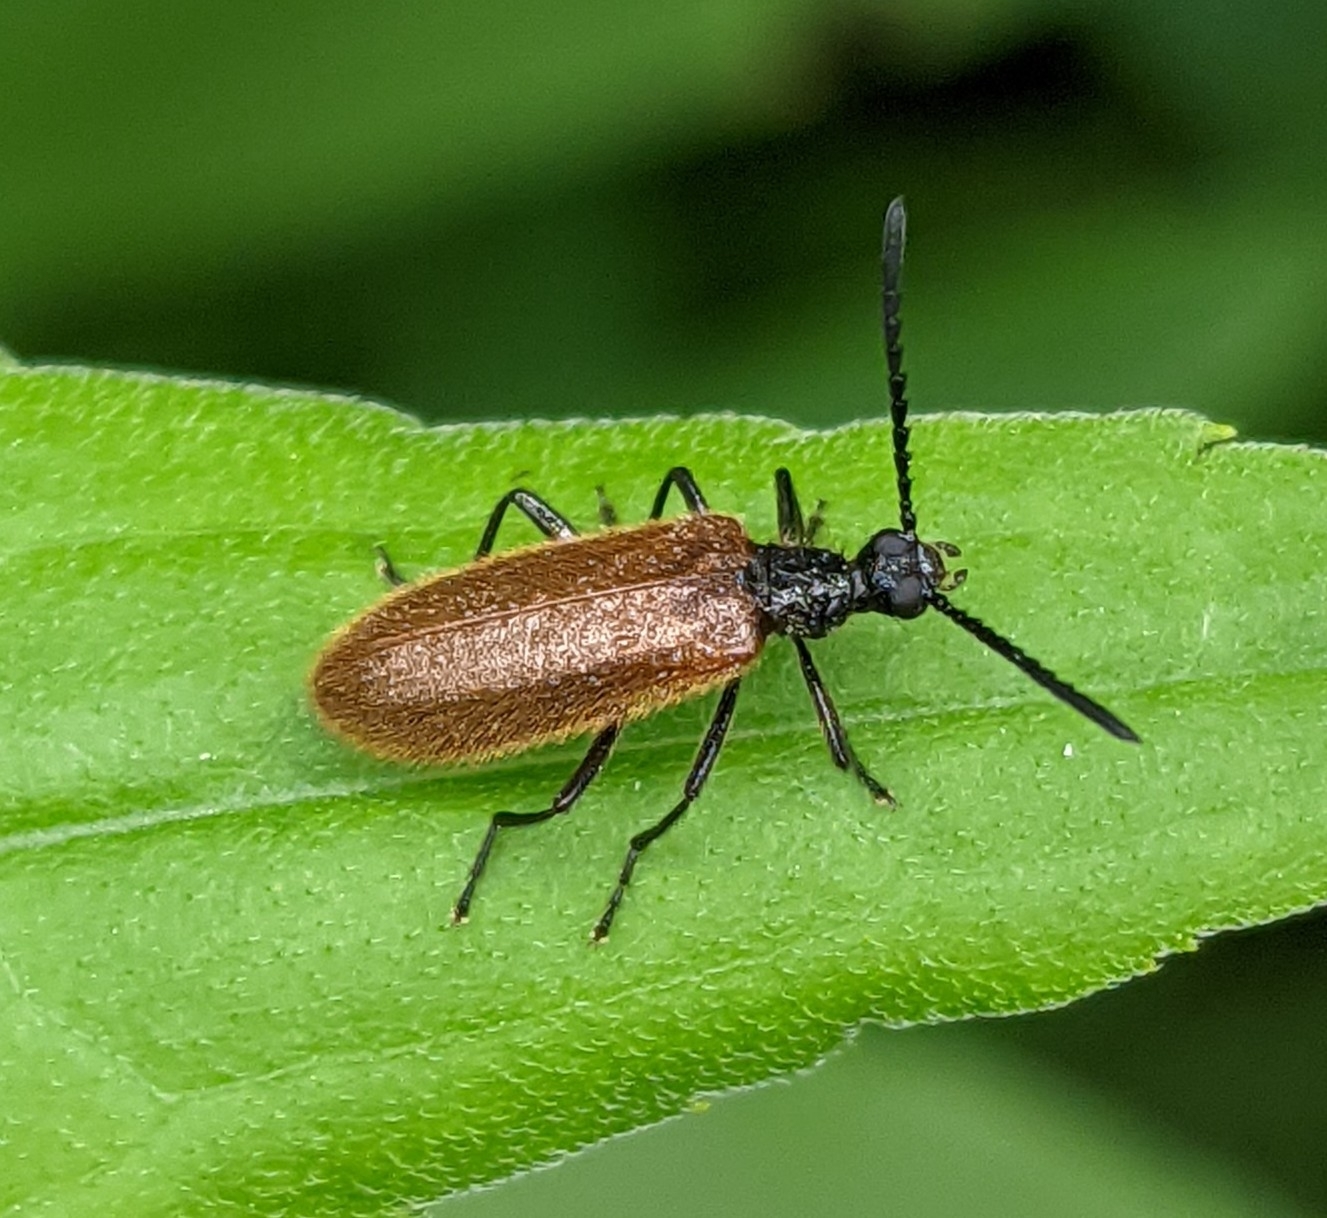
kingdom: Animalia
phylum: Arthropoda
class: Insecta
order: Coleoptera
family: Tenebrionidae
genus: Lagria
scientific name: Lagria hirta
